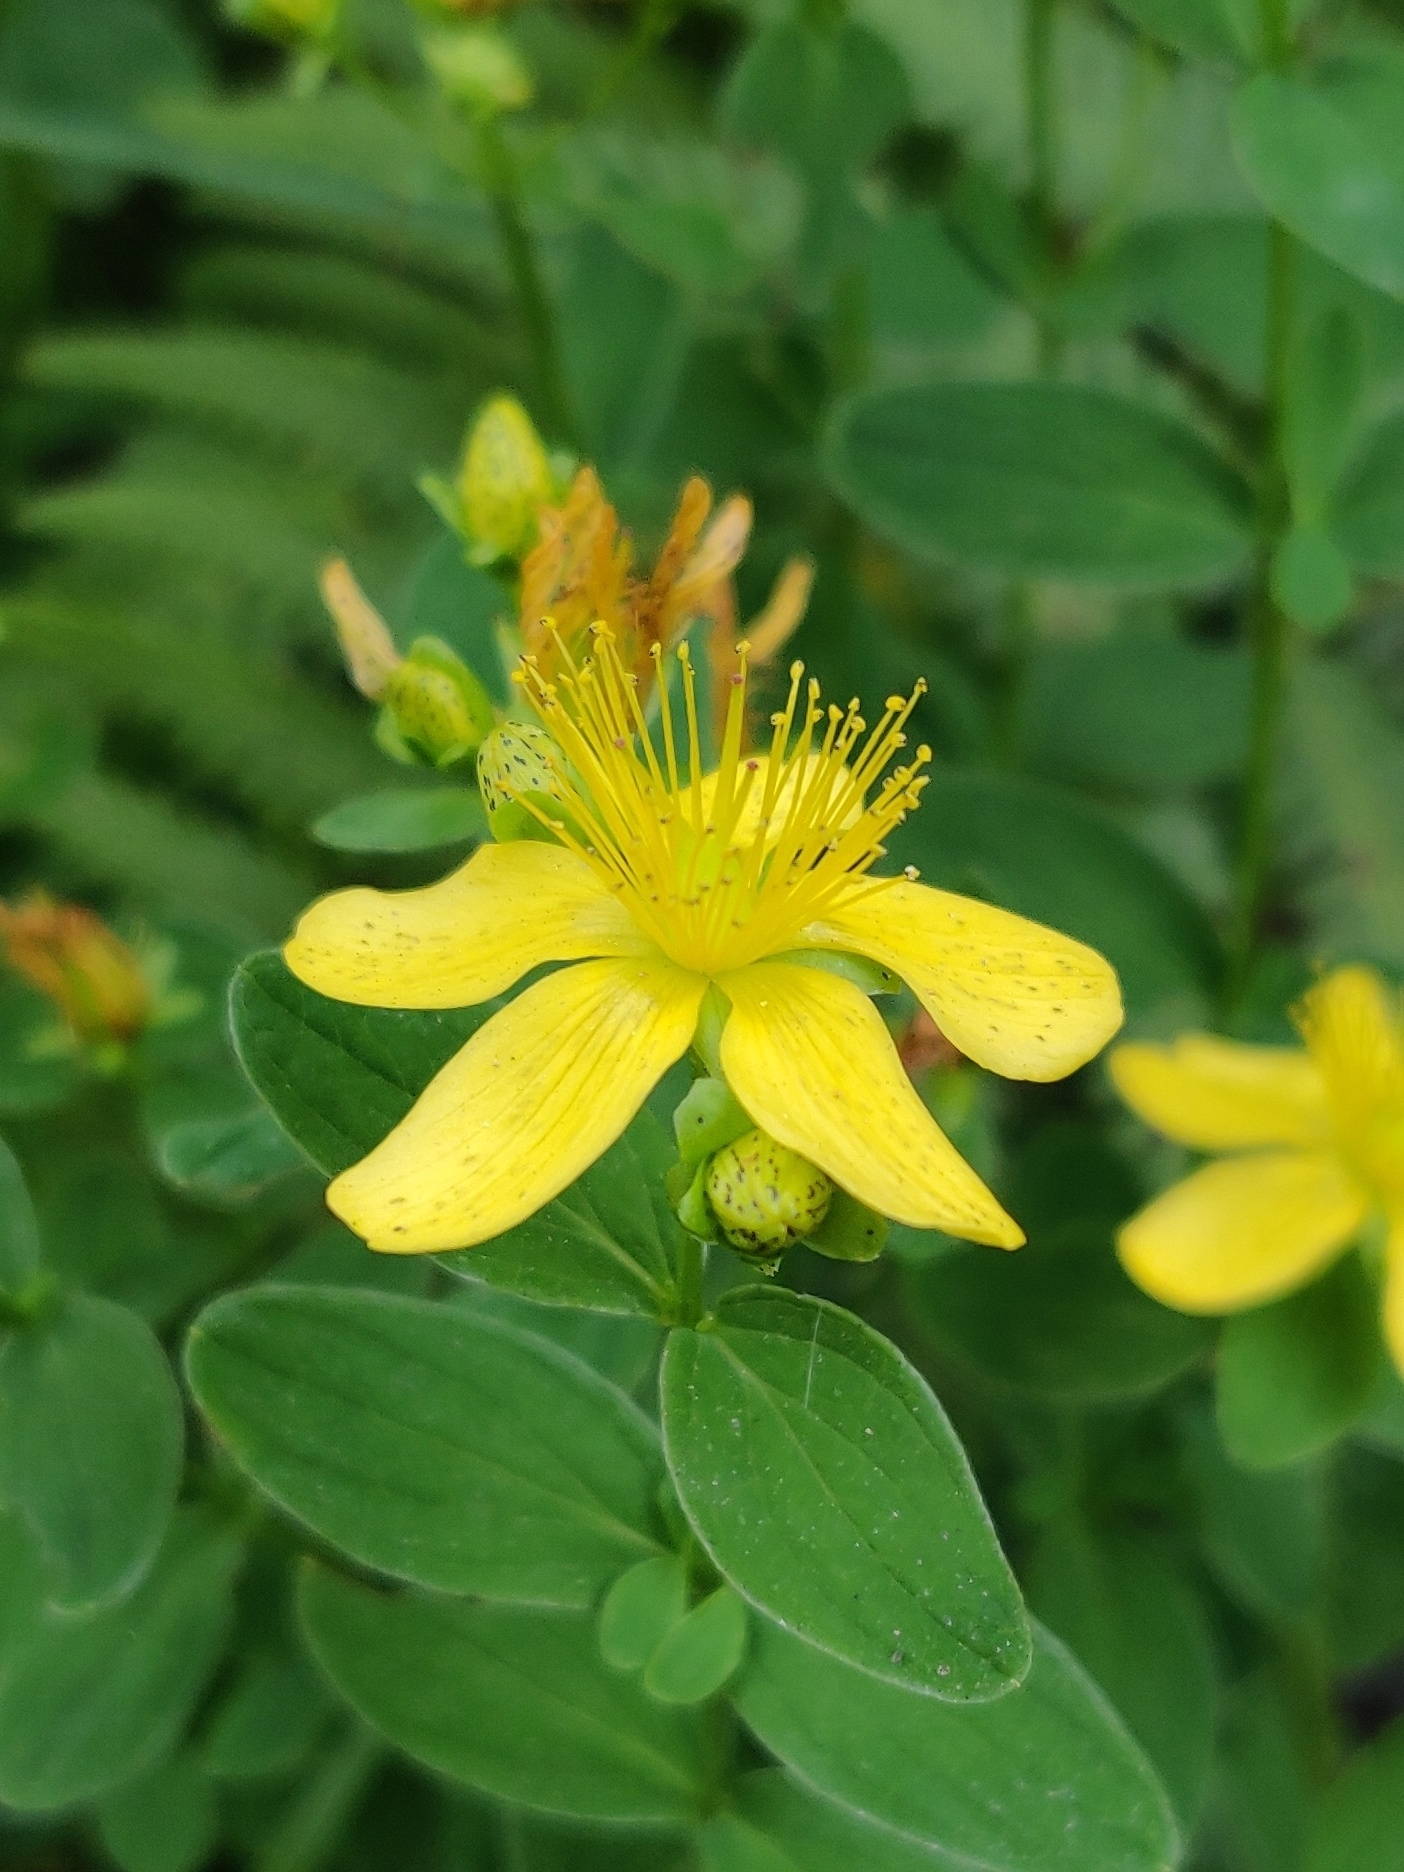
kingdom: Plantae
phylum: Tracheophyta
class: Magnoliopsida
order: Malpighiales
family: Hypericaceae
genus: Hypericum
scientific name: Hypericum maculatum
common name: Imperforate st. john's-wort
